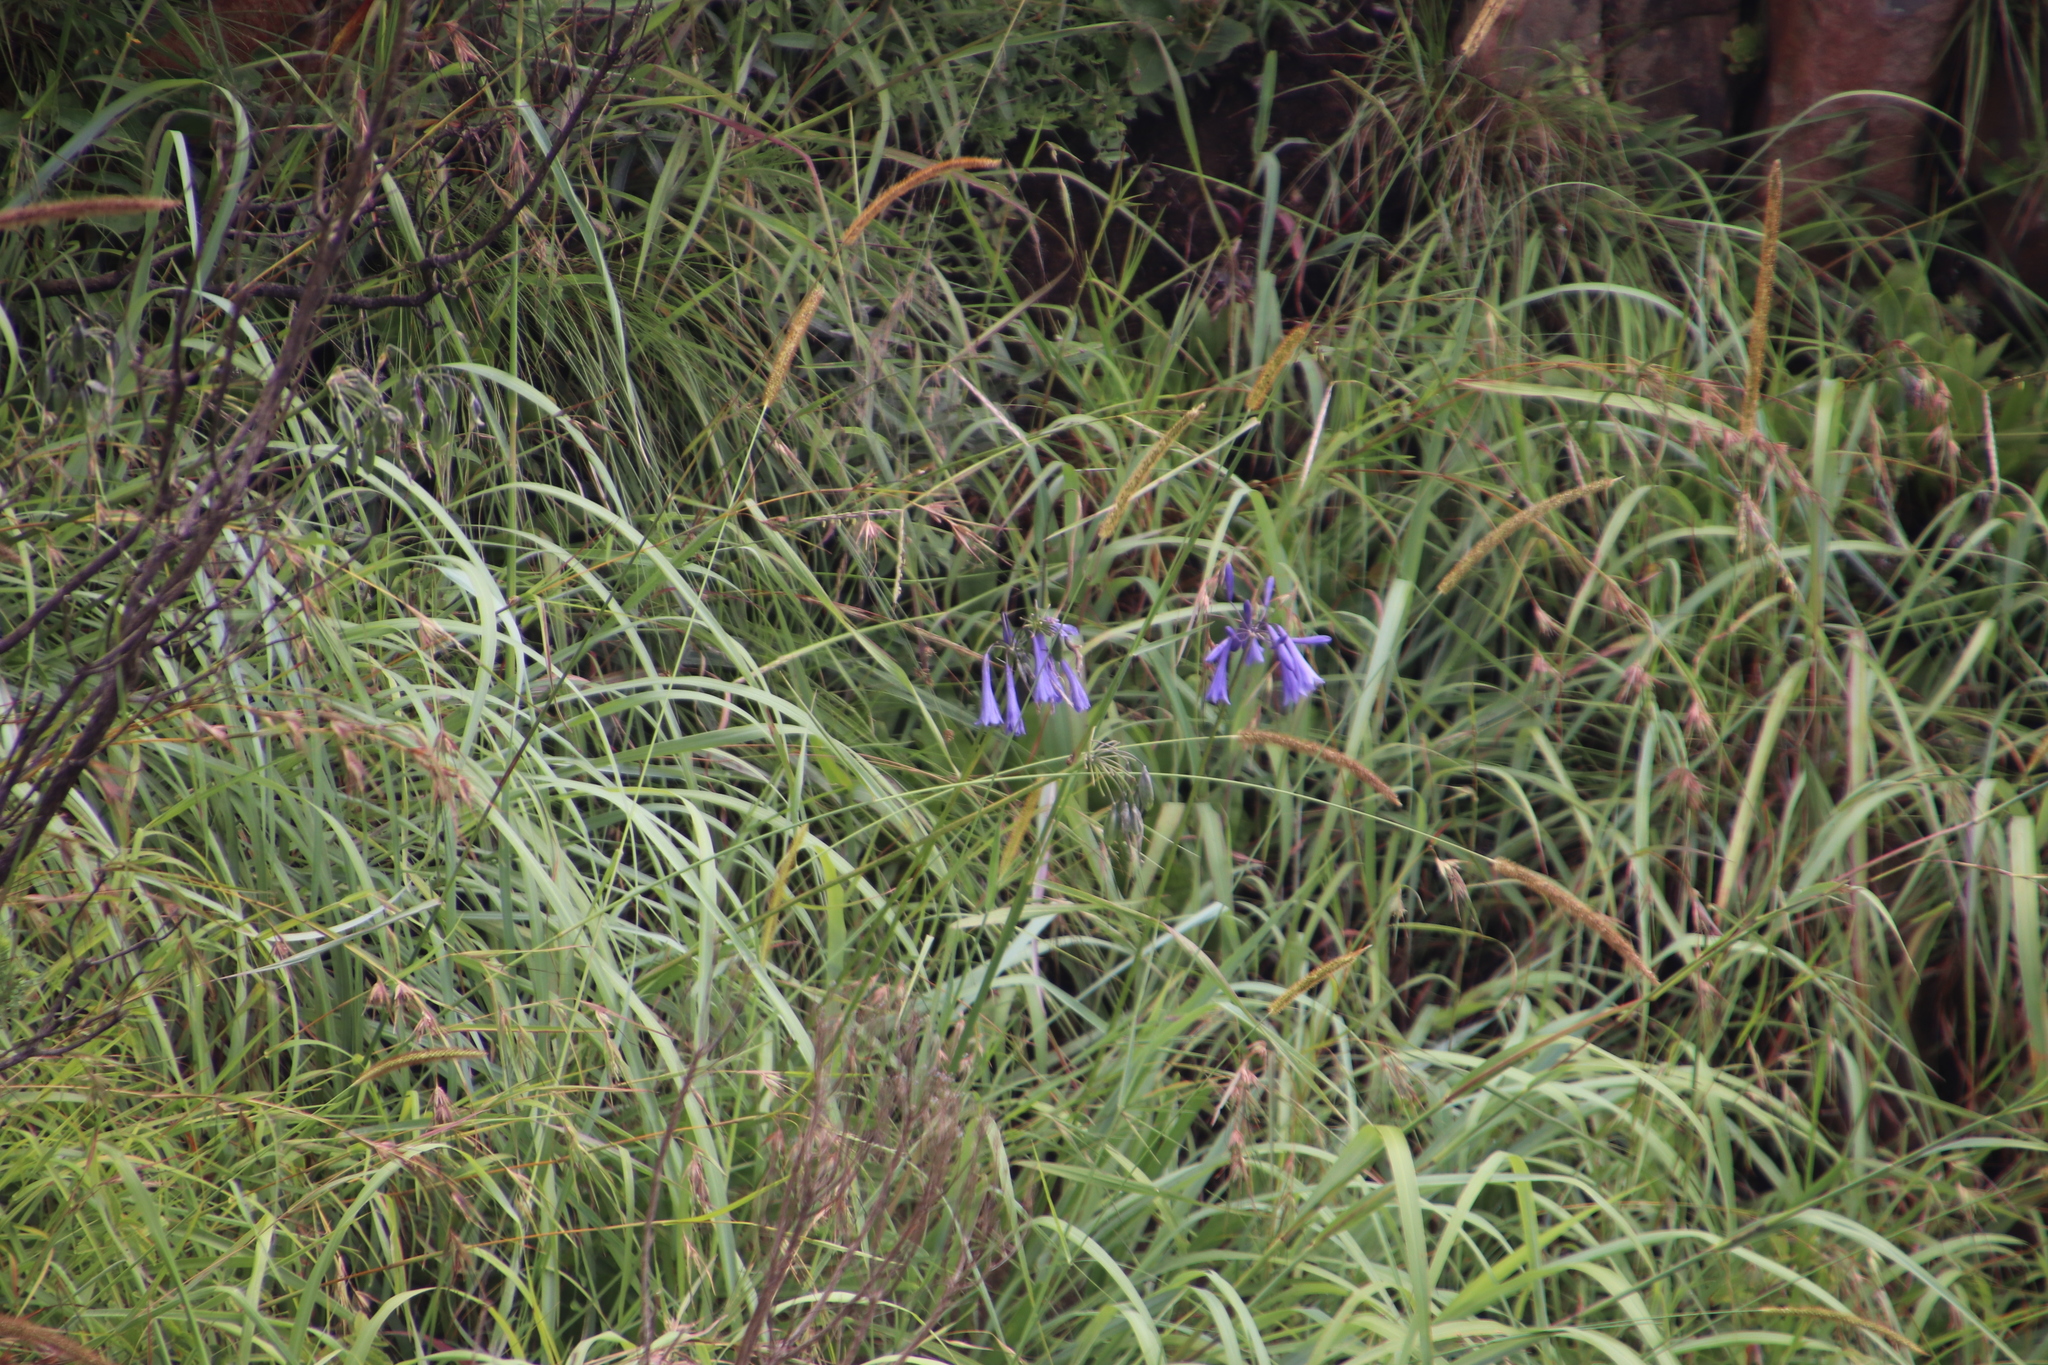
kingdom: Plantae
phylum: Tracheophyta
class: Liliopsida
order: Asparagales
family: Amaryllidaceae
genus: Agapanthus
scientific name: Agapanthus inapertus
